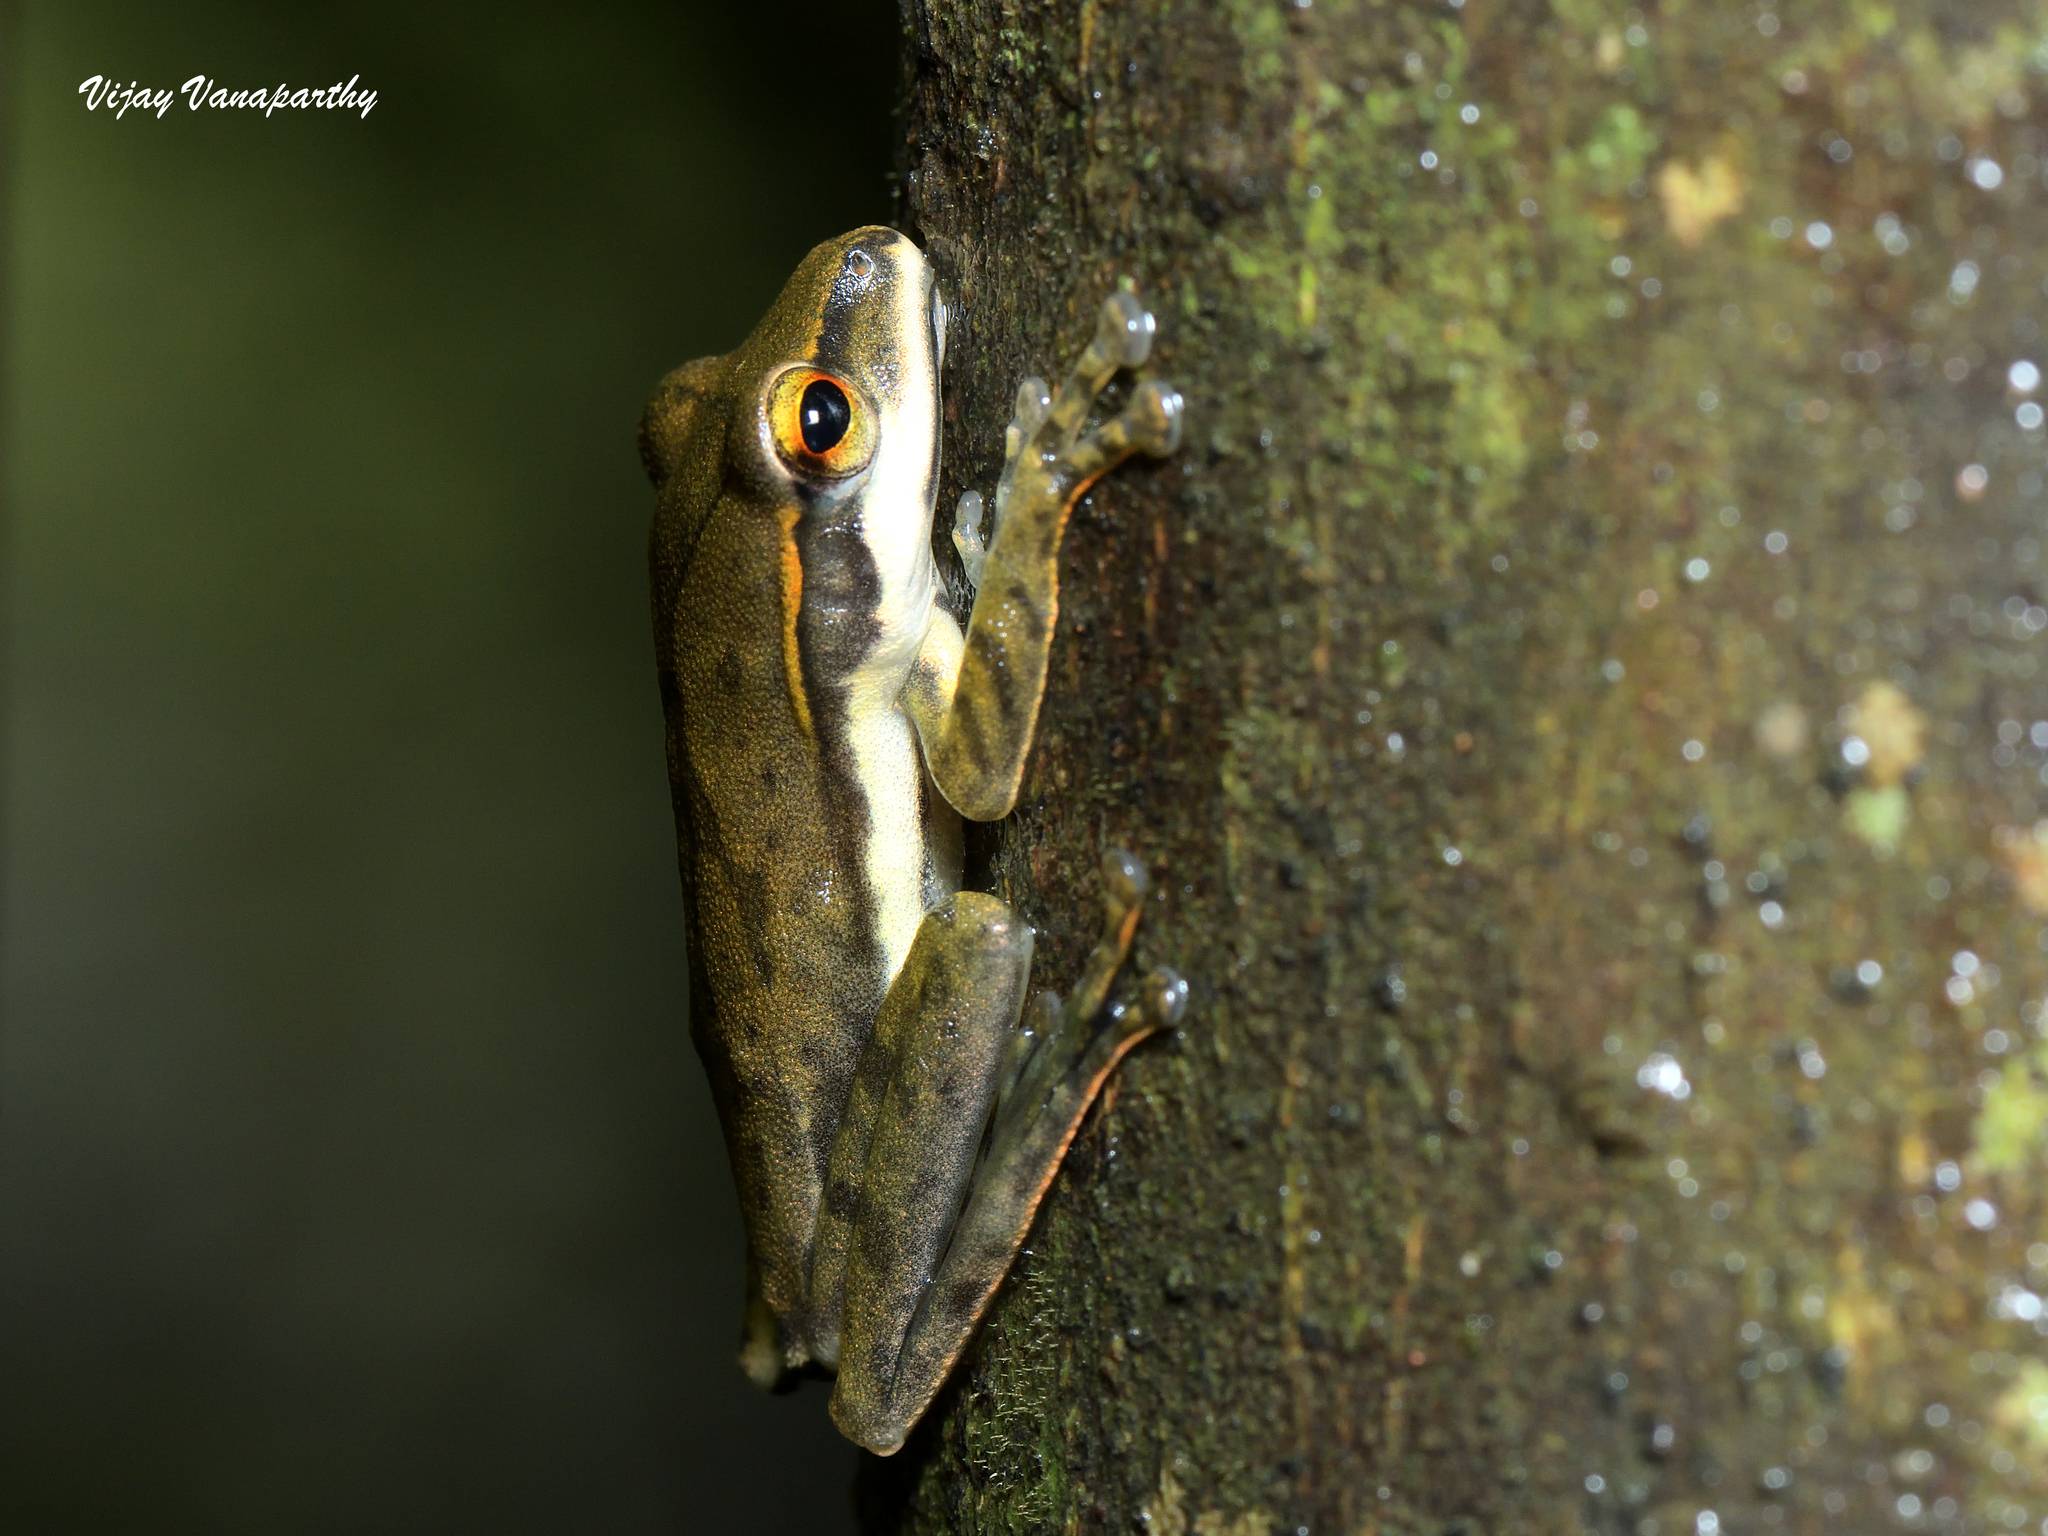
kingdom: Animalia
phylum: Chordata
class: Amphibia
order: Anura
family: Rhacophoridae
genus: Polypedates
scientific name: Polypedates occidentalis
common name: Charpa tree frog
